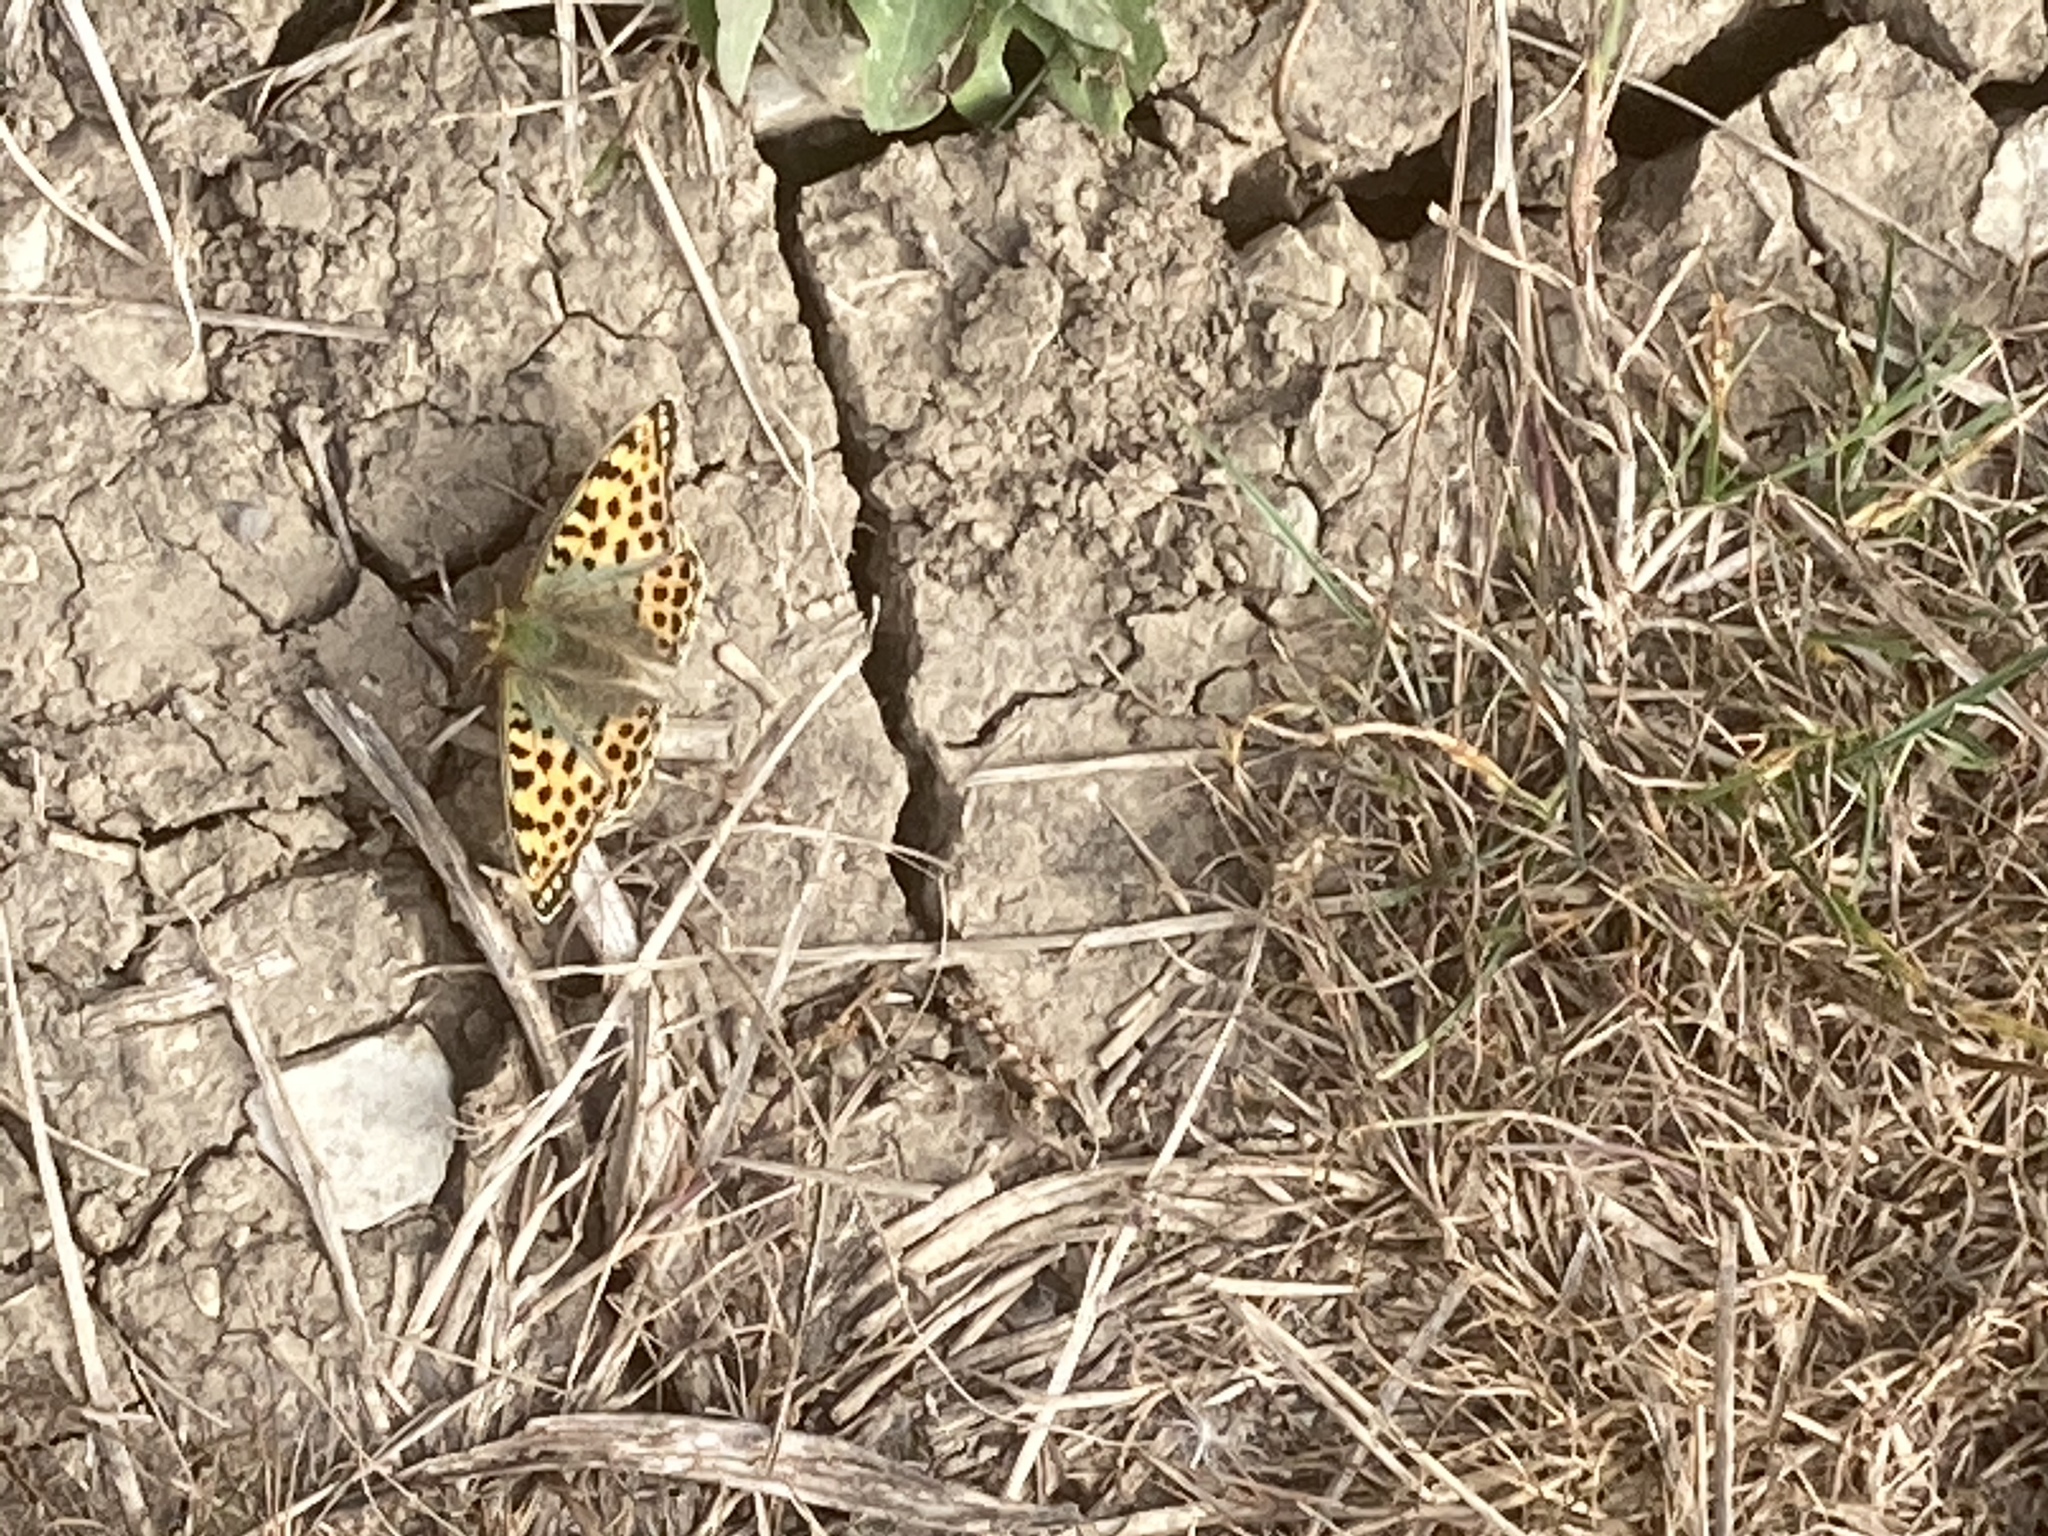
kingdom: Animalia
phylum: Arthropoda
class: Insecta
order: Lepidoptera
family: Nymphalidae
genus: Issoria
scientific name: Issoria lathonia
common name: Queen of spain fritillary
